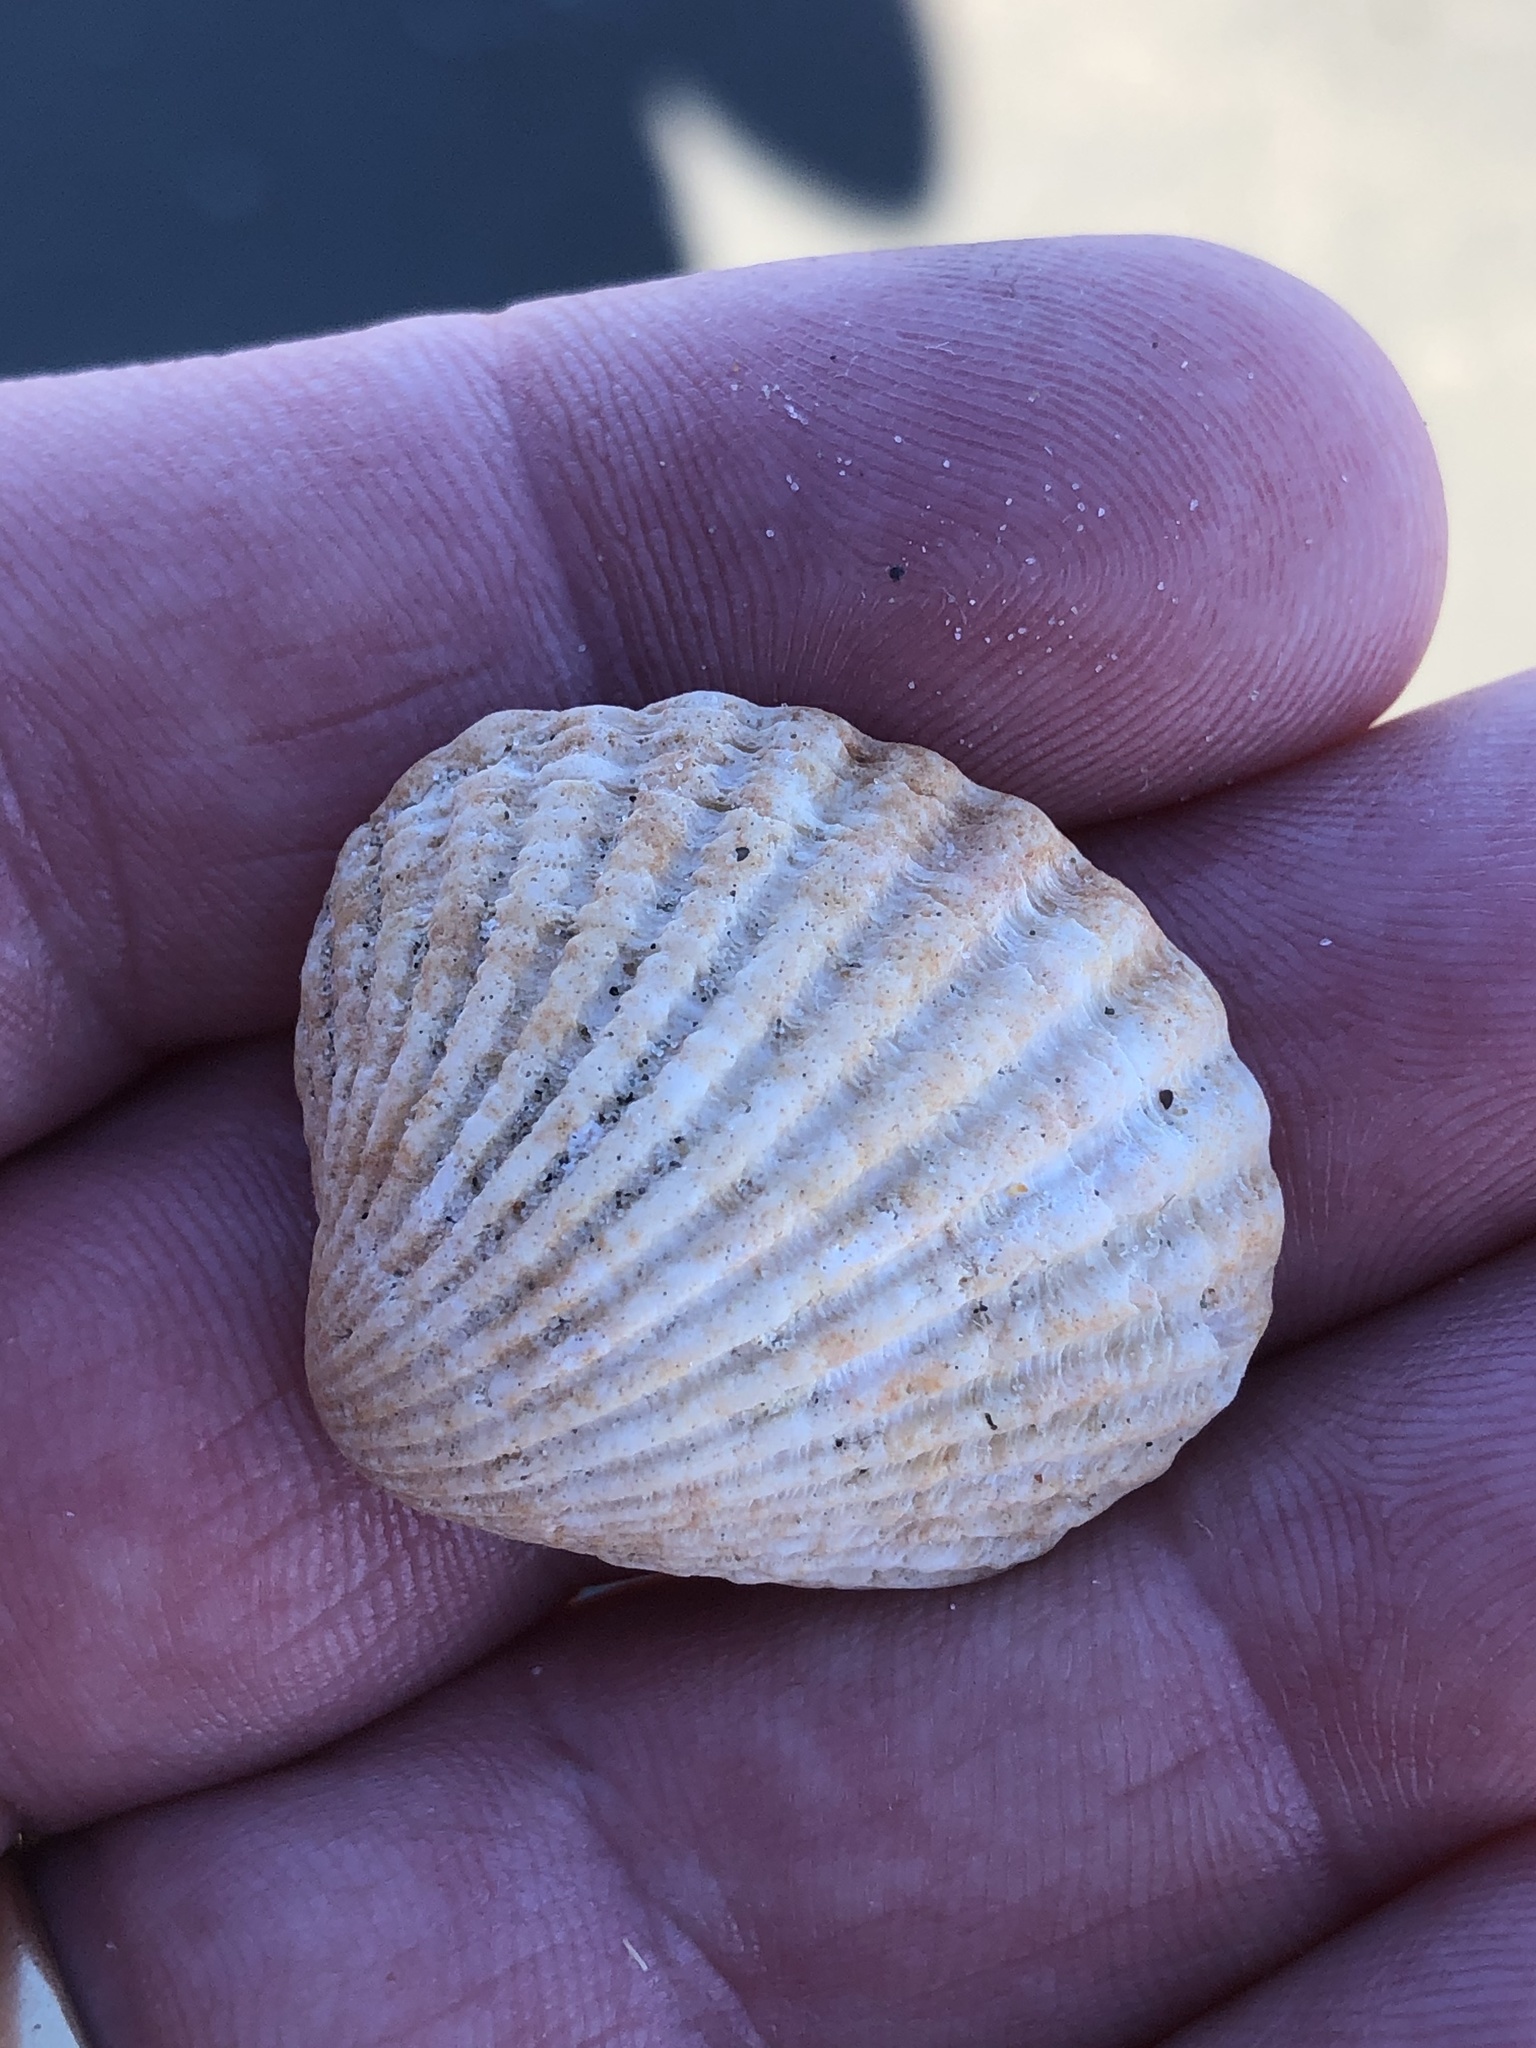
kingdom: Animalia
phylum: Mollusca
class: Bivalvia
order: Carditida
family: Carditidae
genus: Purpurocardia
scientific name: Purpurocardia purpurata
